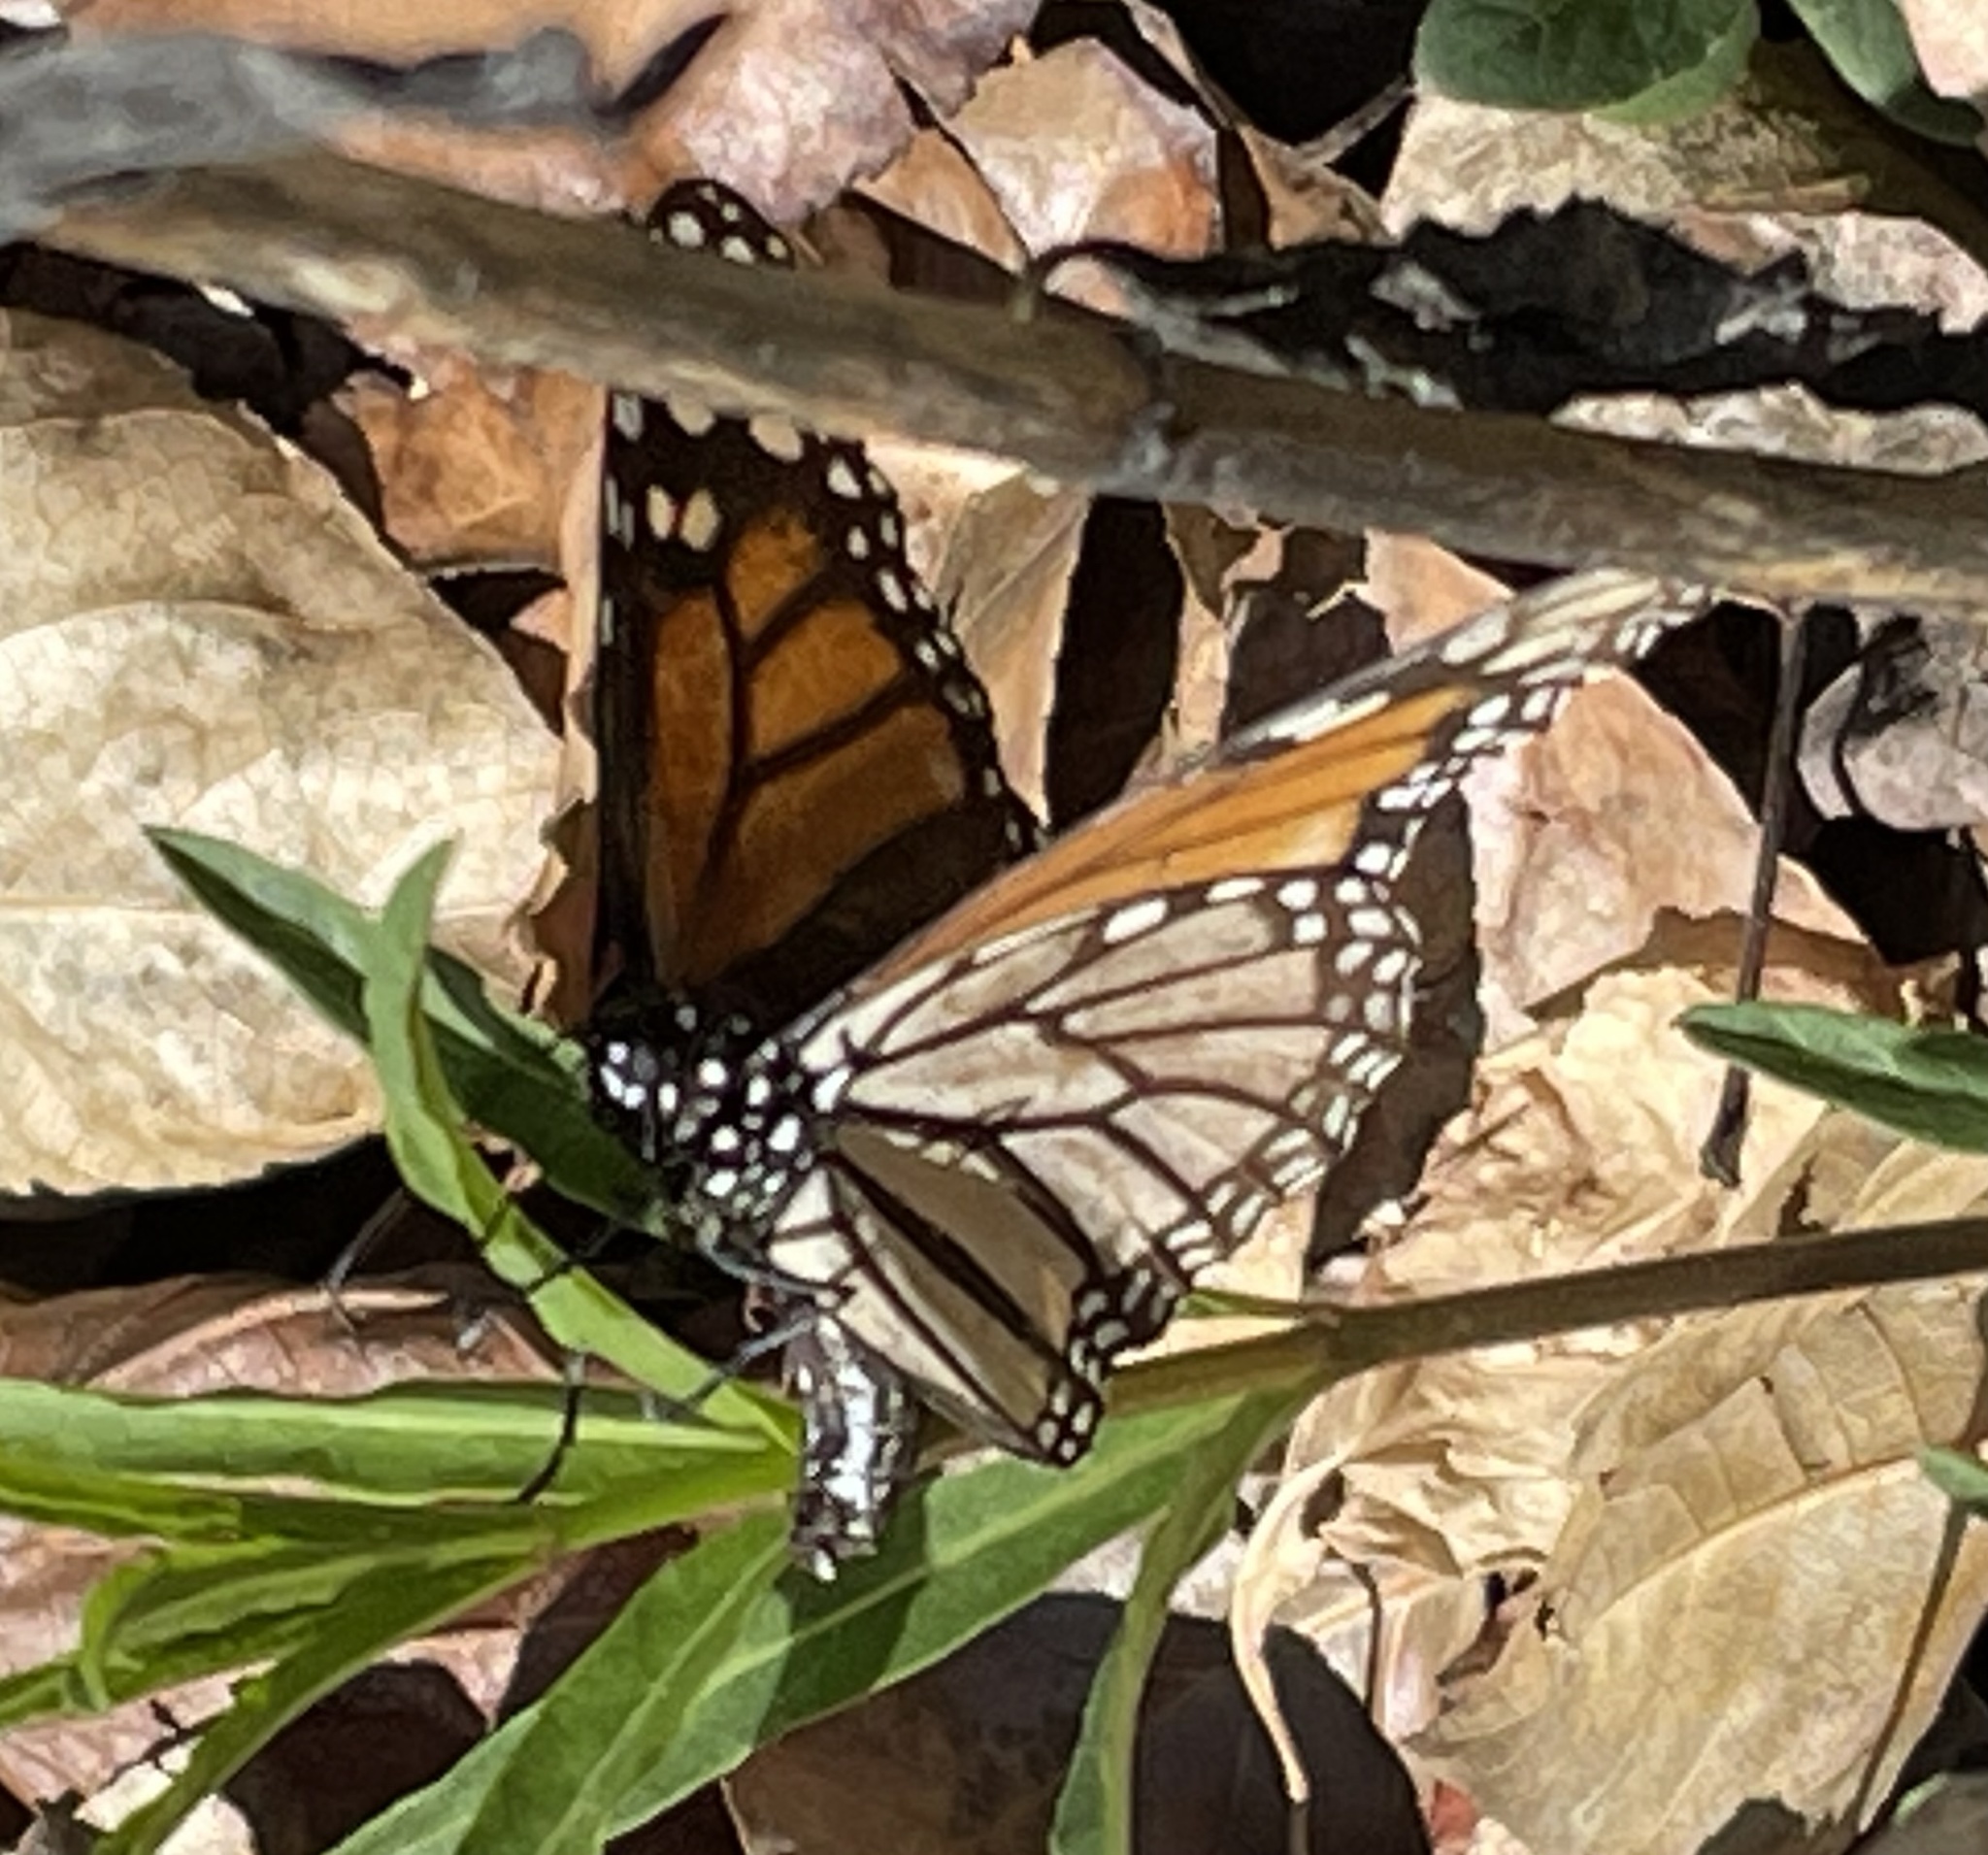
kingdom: Animalia
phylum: Arthropoda
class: Insecta
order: Lepidoptera
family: Nymphalidae
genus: Danaus
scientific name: Danaus plexippus
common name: Monarch
